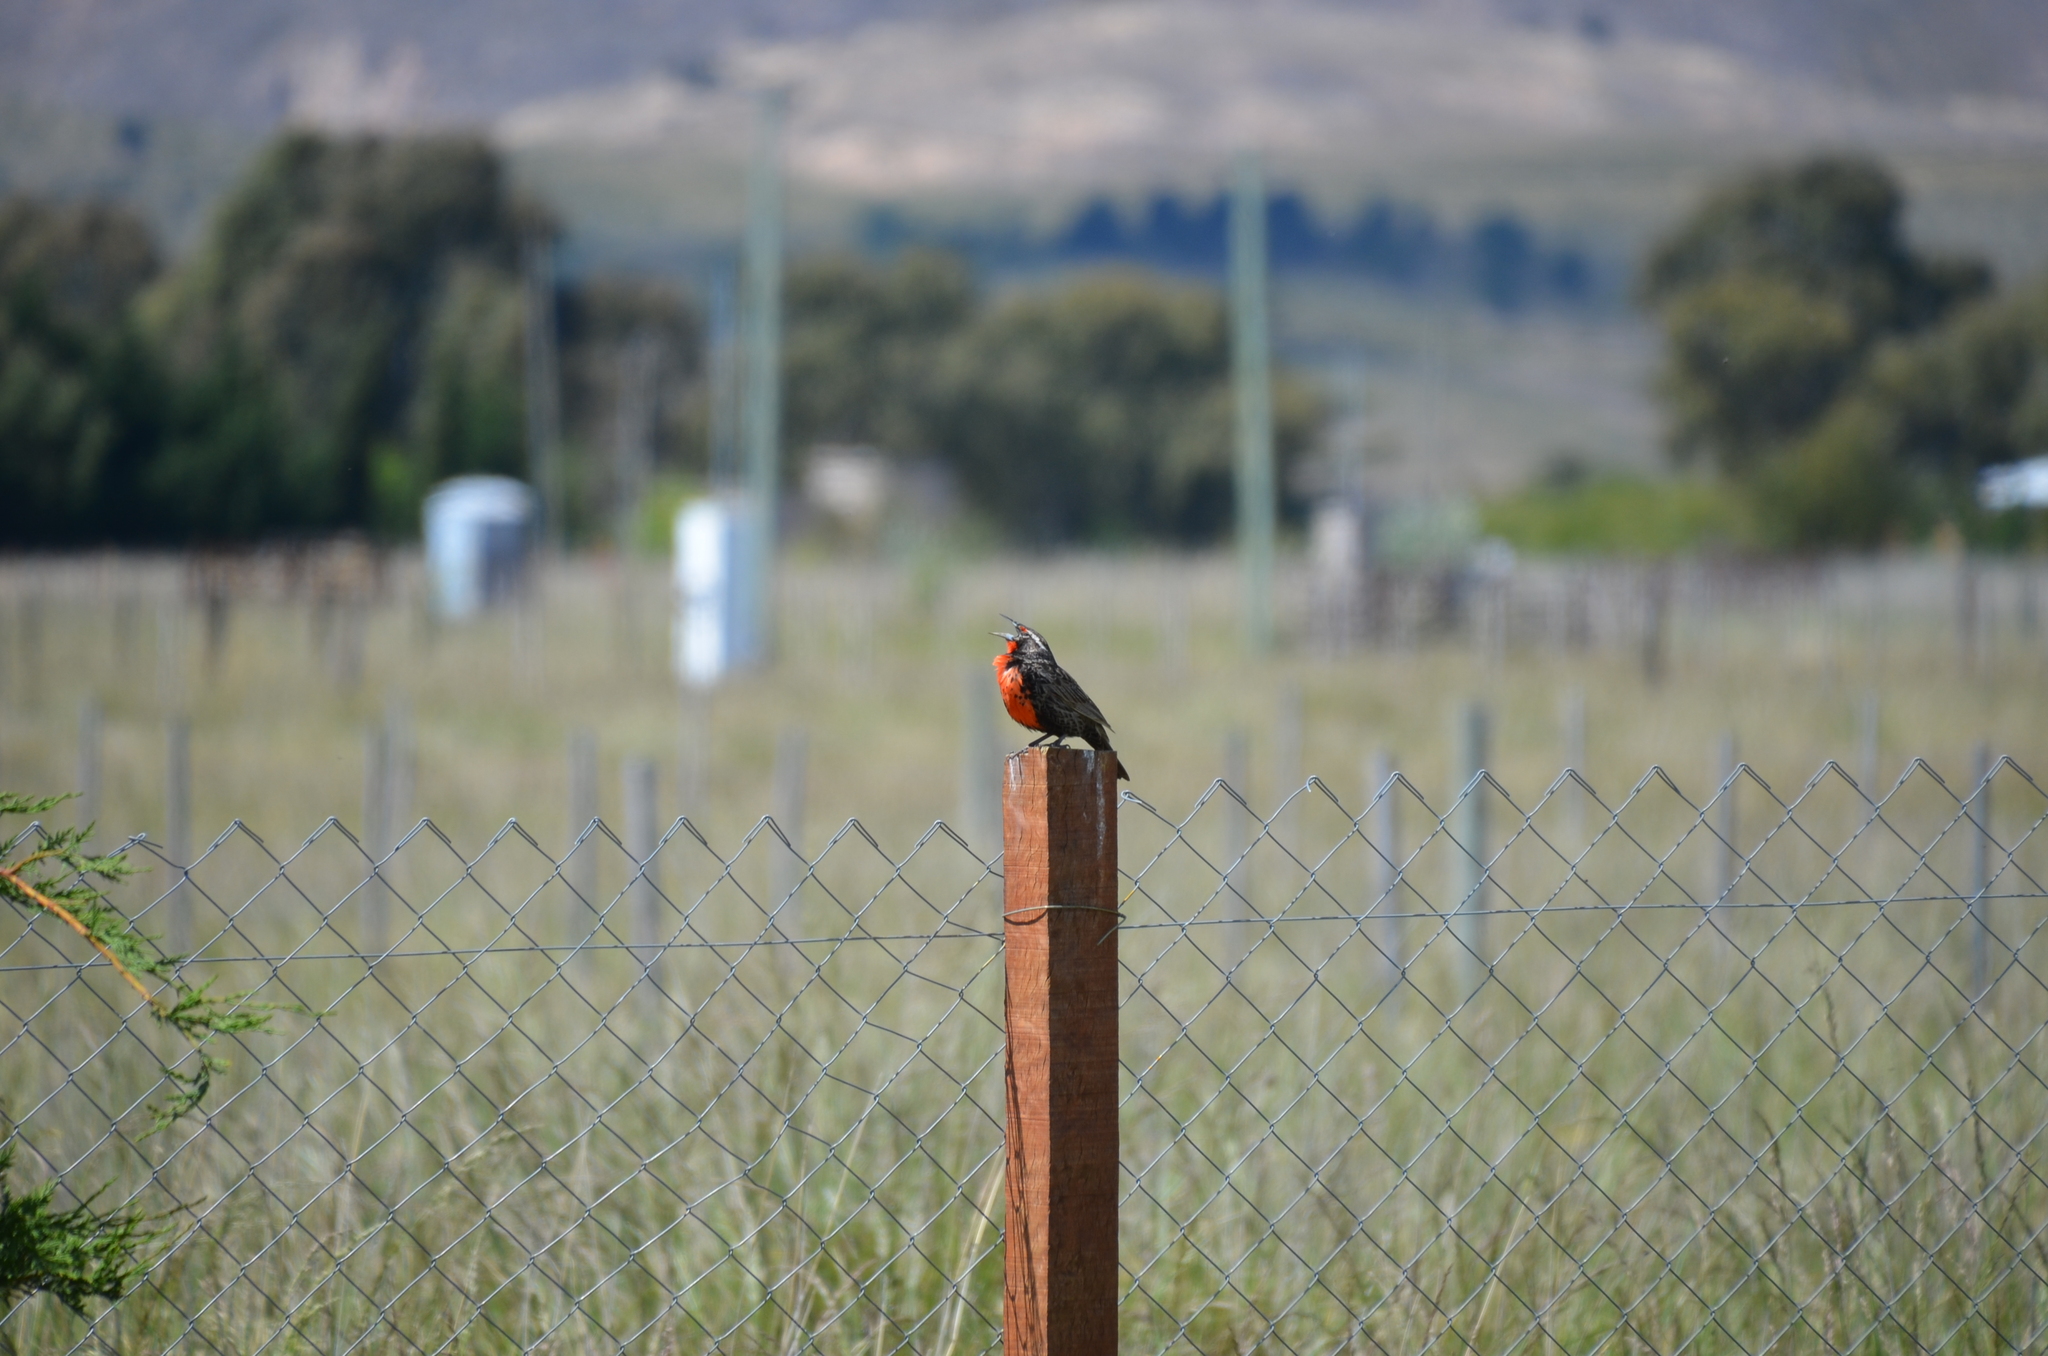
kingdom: Animalia
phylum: Chordata
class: Aves
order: Passeriformes
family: Icteridae
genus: Sturnella
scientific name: Sturnella loyca
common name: Long-tailed meadowlark
